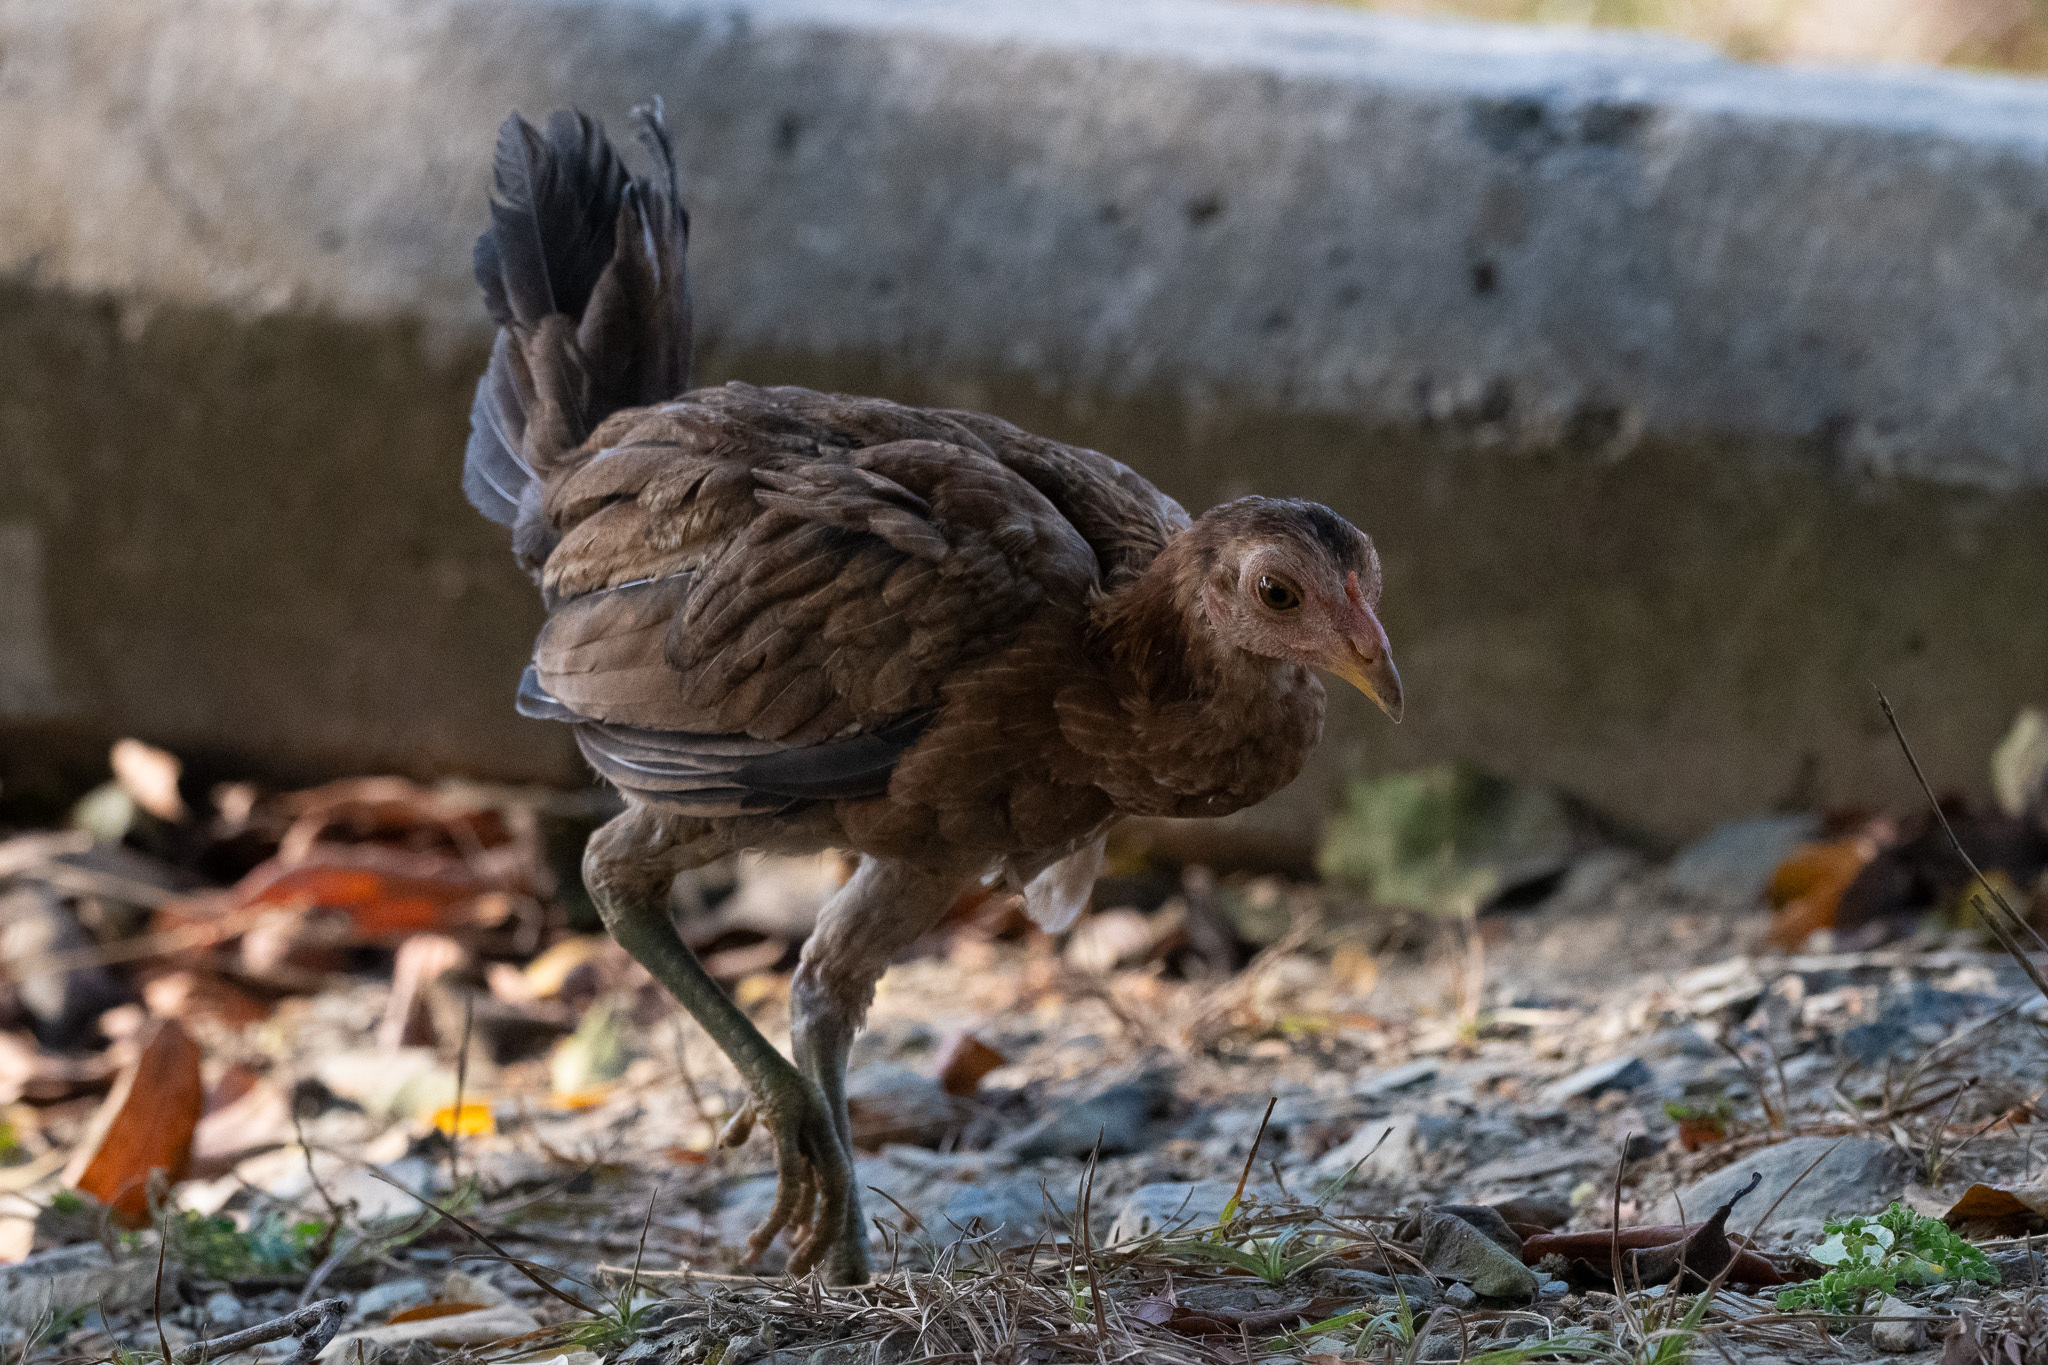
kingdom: Animalia
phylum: Chordata
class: Aves
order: Galliformes
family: Phasianidae
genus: Gallus
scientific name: Gallus gallus
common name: Red junglefowl
